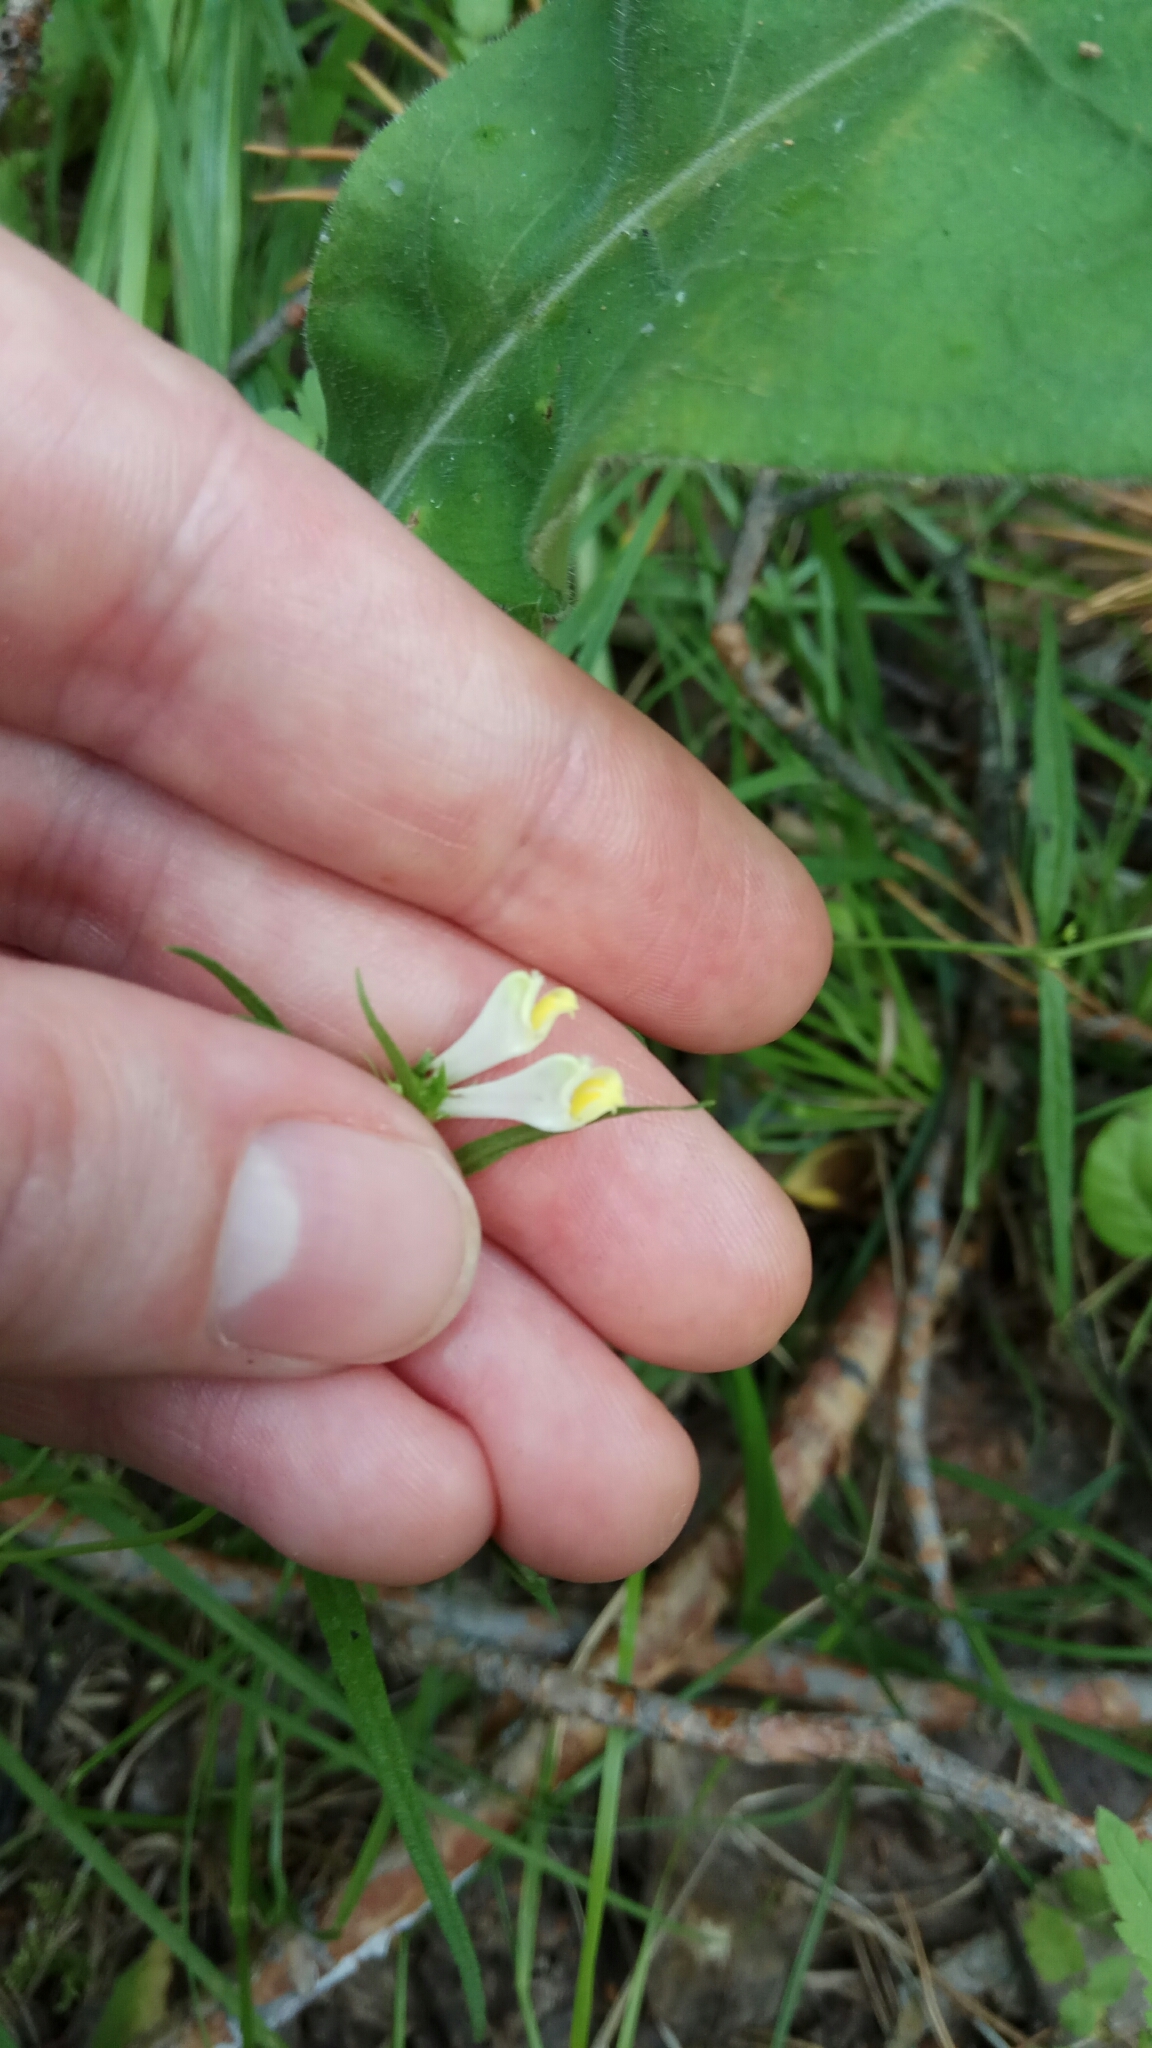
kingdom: Plantae
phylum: Tracheophyta
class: Magnoliopsida
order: Lamiales
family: Orobanchaceae
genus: Melampyrum
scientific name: Melampyrum pratense
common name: Common cow-wheat
